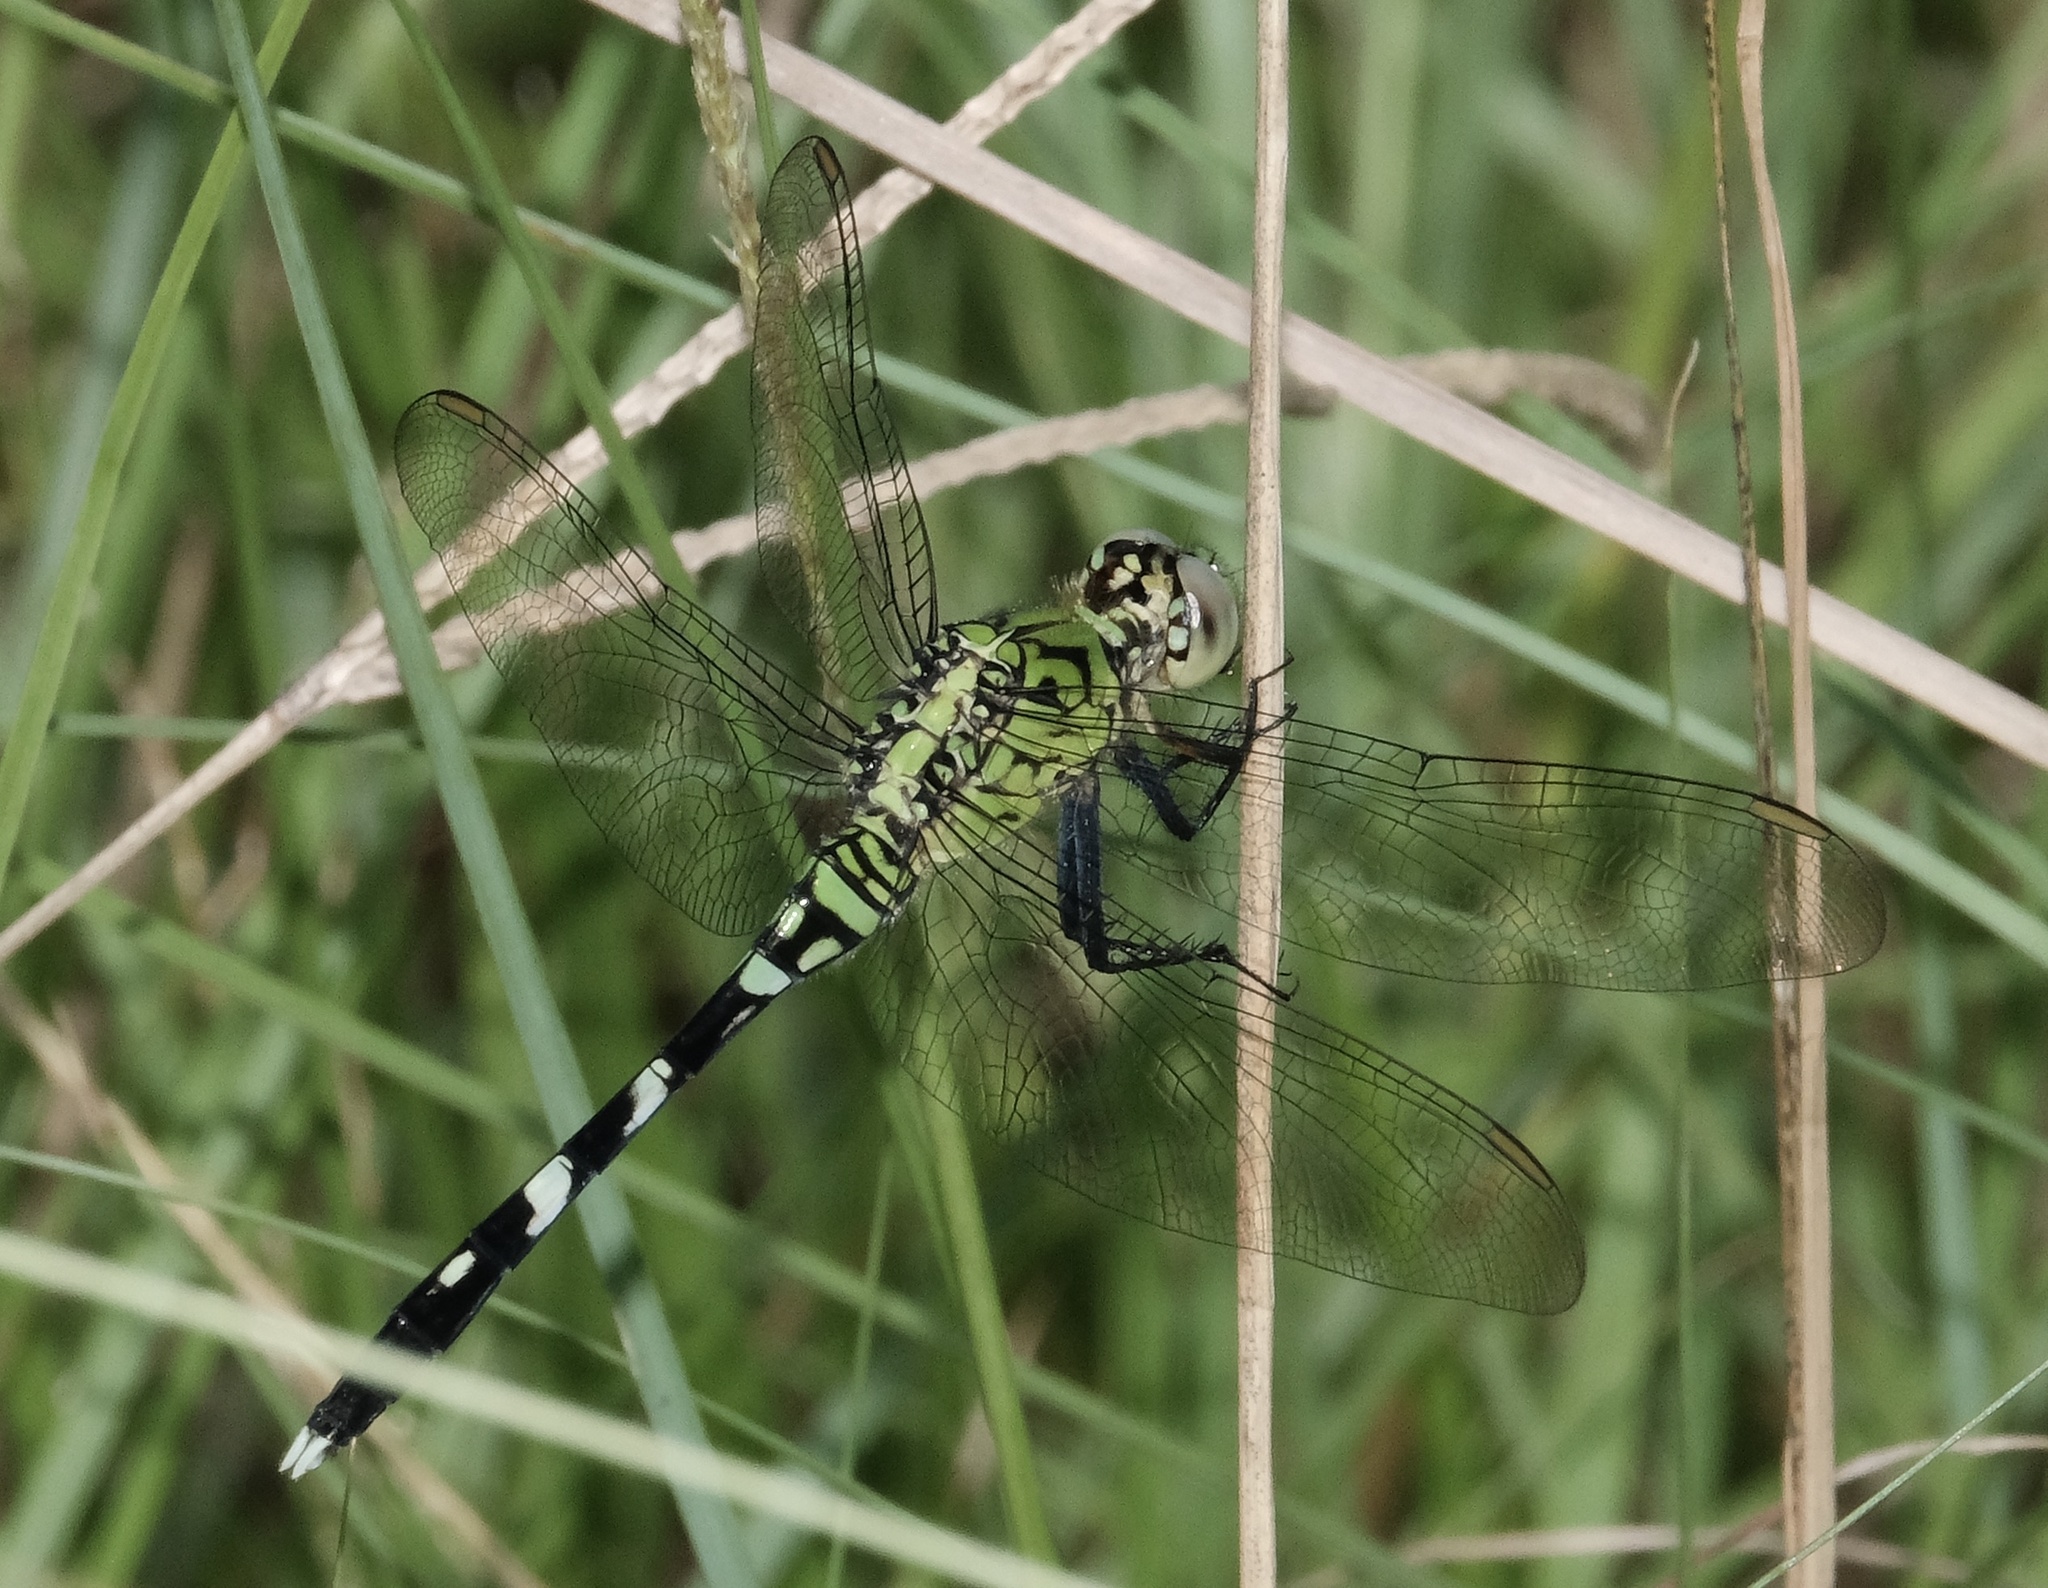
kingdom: Animalia
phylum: Arthropoda
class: Insecta
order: Odonata
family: Libellulidae
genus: Erythemis
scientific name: Erythemis simplicicollis
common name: Eastern pondhawk
